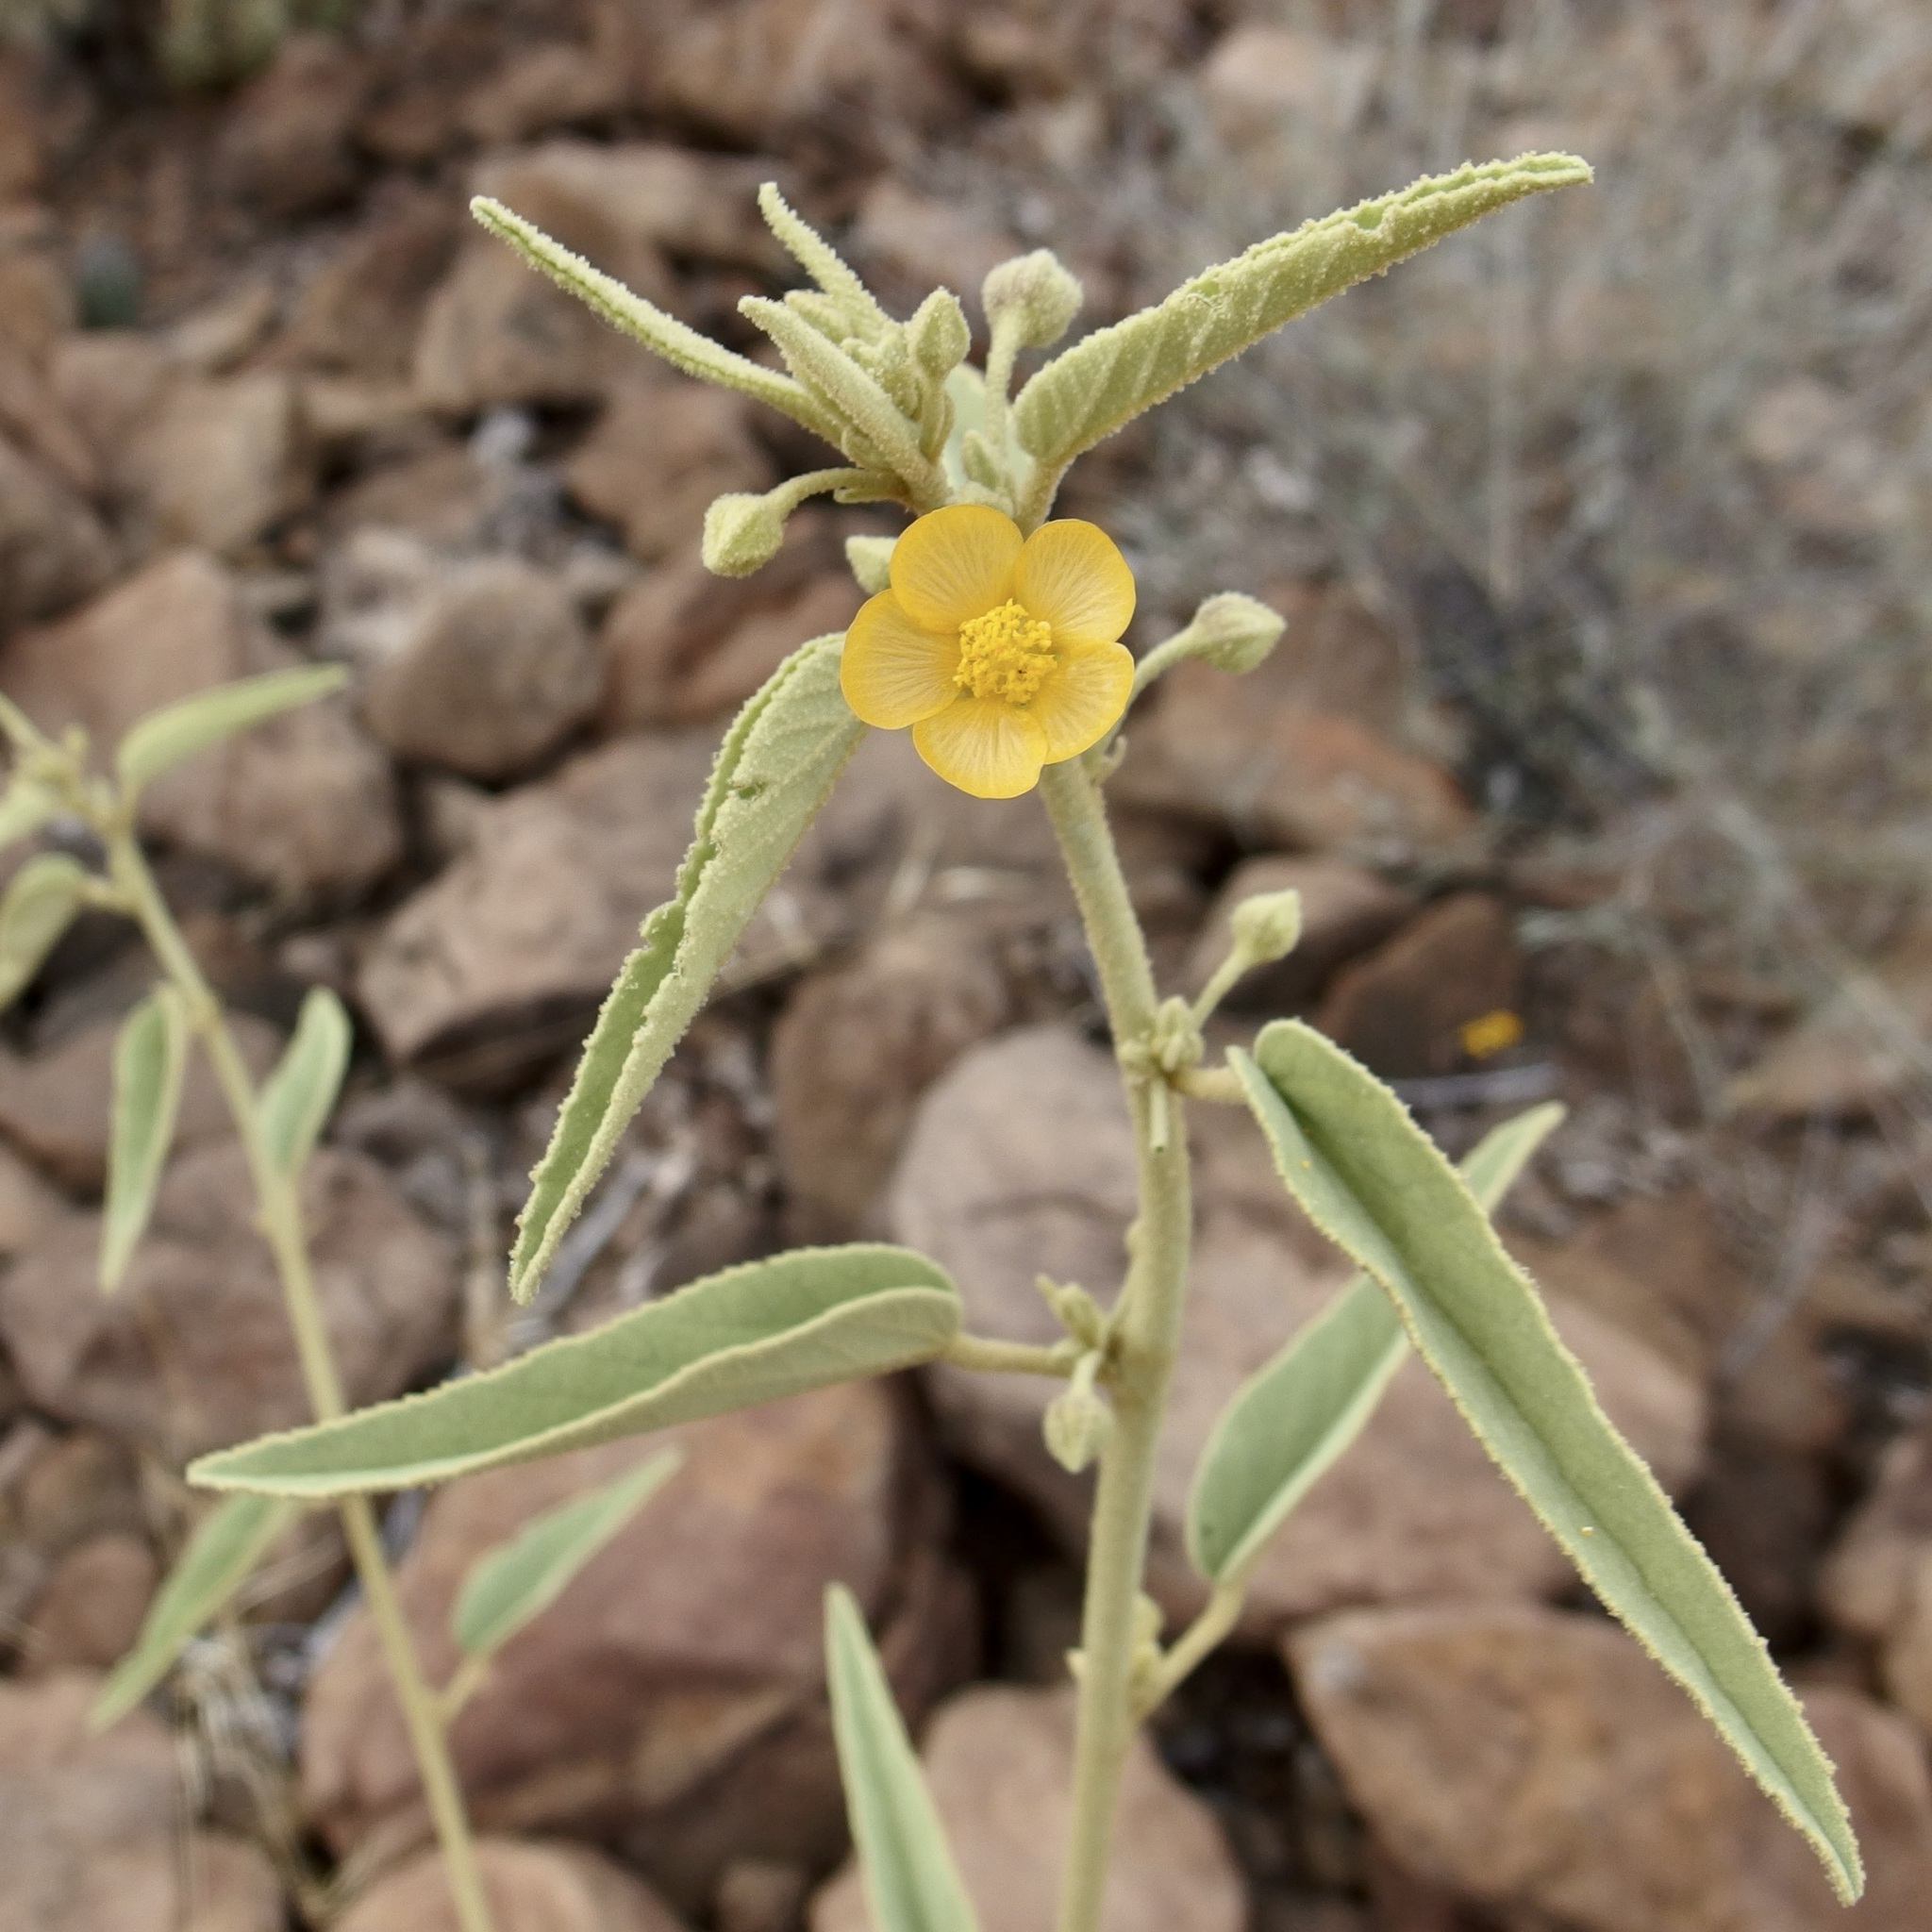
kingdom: Plantae
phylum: Tracheophyta
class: Magnoliopsida
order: Malvales
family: Malvaceae
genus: Horsfordia
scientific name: Horsfordia newberryi
